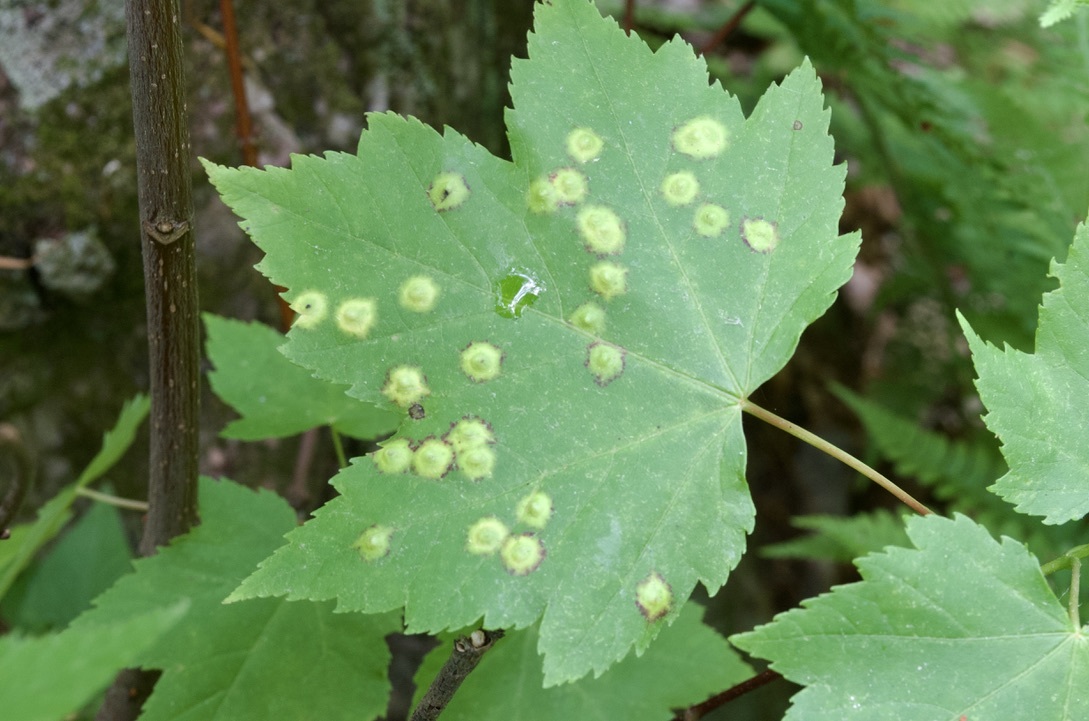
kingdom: Animalia
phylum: Arthropoda
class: Insecta
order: Diptera
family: Cecidomyiidae
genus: Acericecis
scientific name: Acericecis ocellaris
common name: Ocellate gall midge
